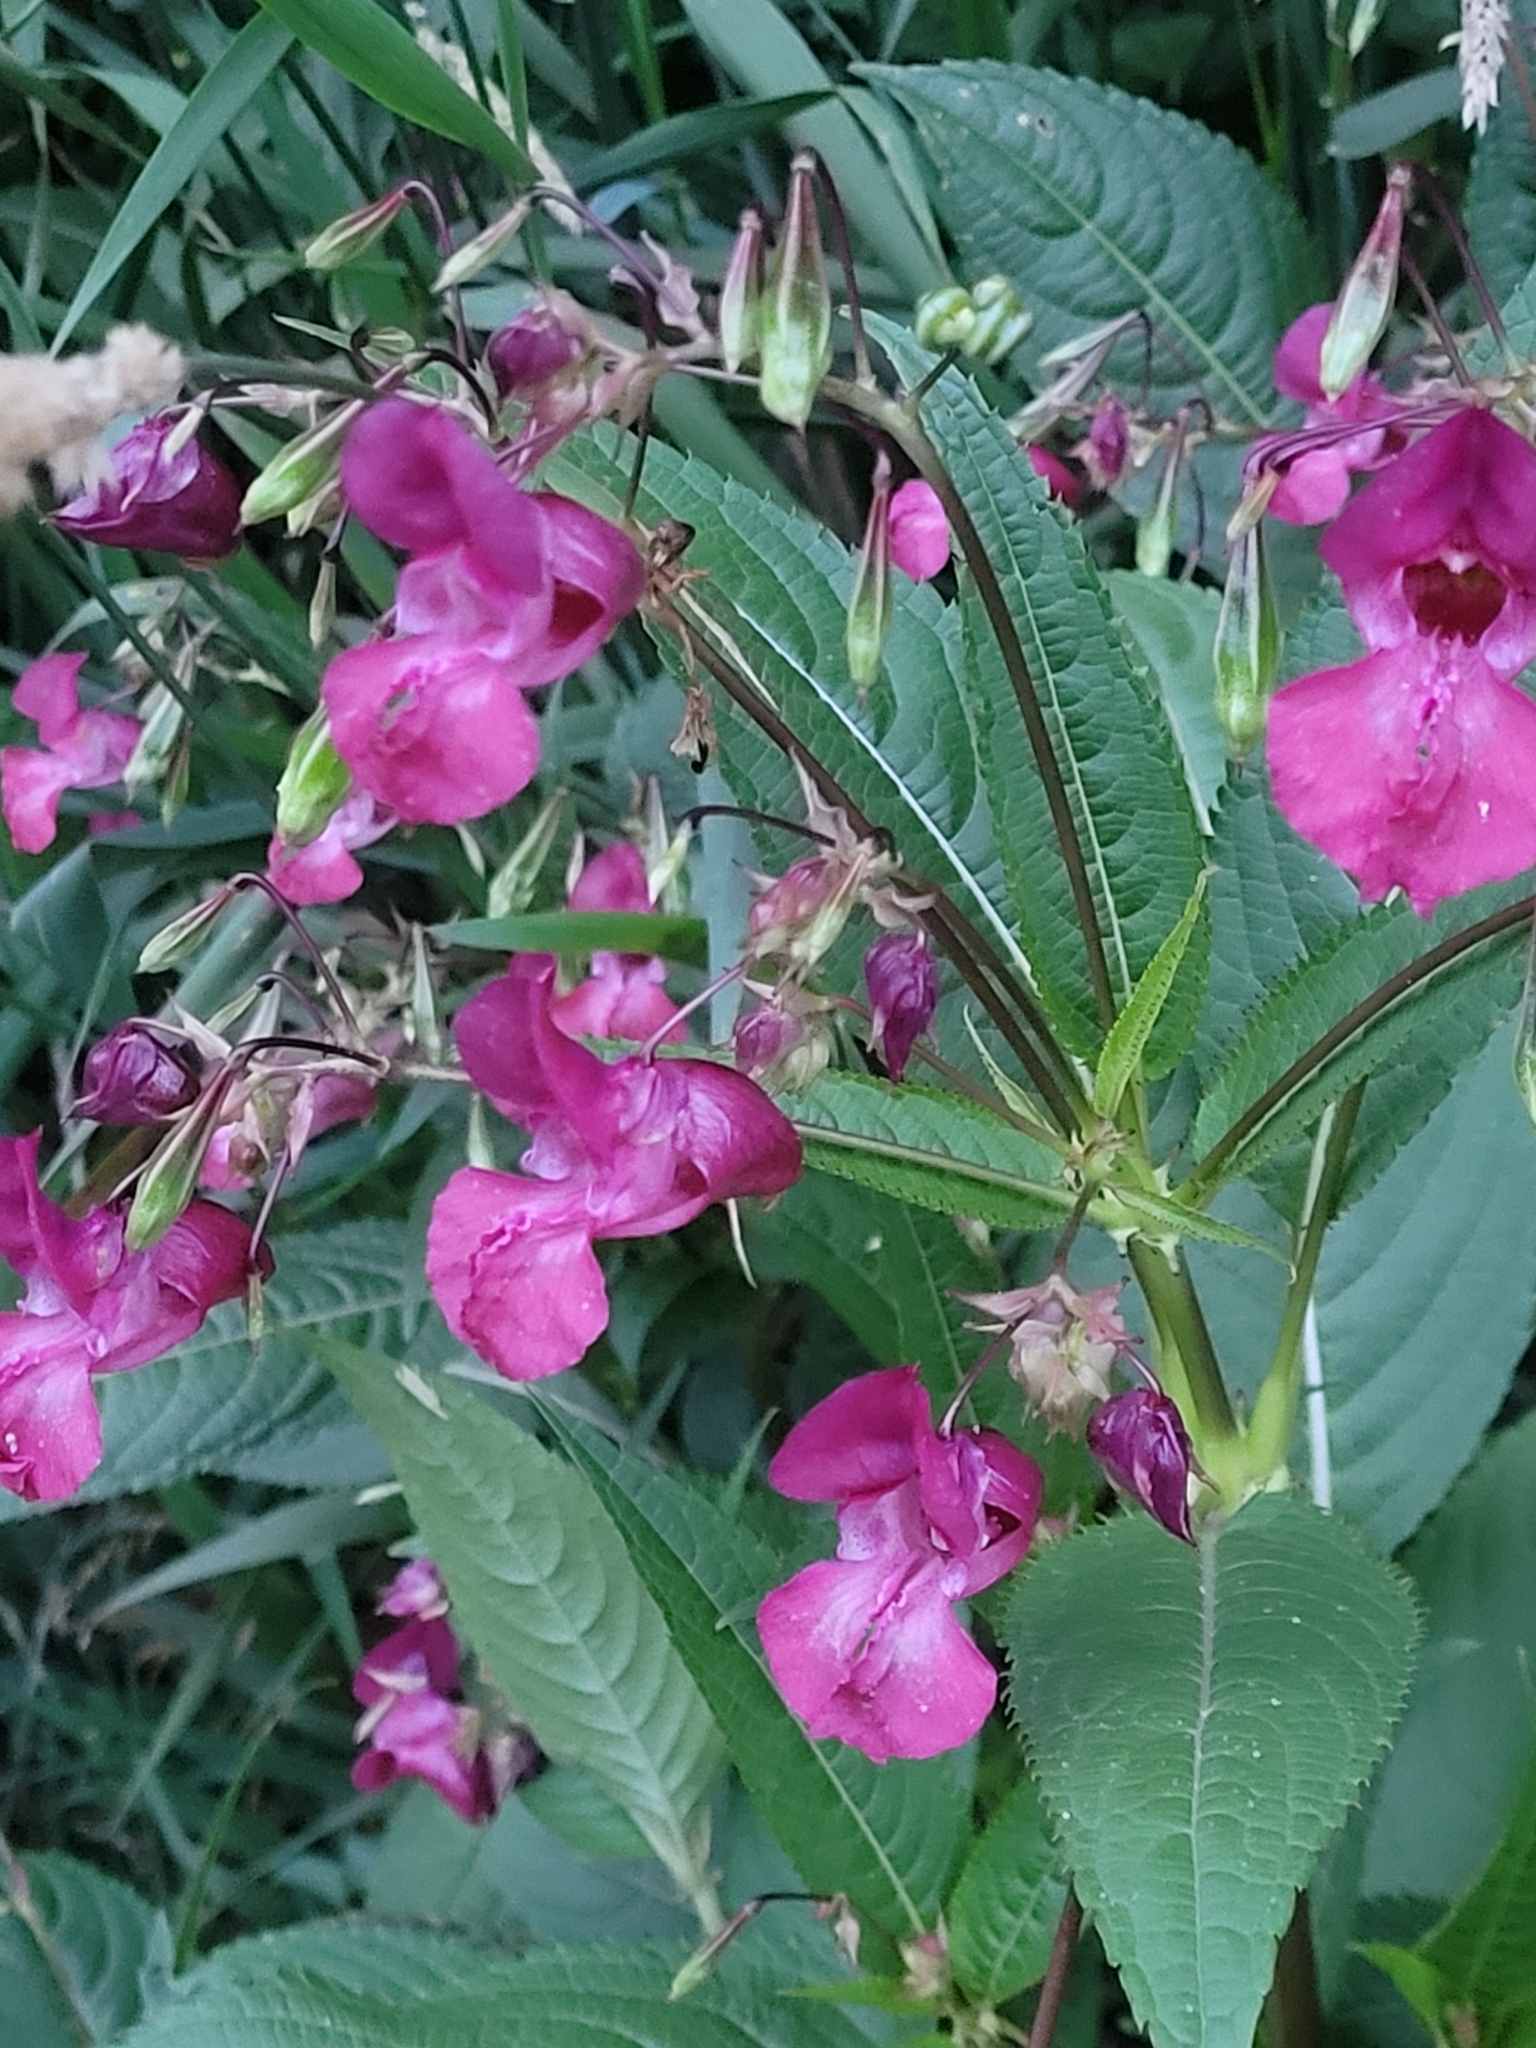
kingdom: Plantae
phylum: Tracheophyta
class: Magnoliopsida
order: Ericales
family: Balsaminaceae
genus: Impatiens
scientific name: Impatiens glandulifera
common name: Himalayan balsam
